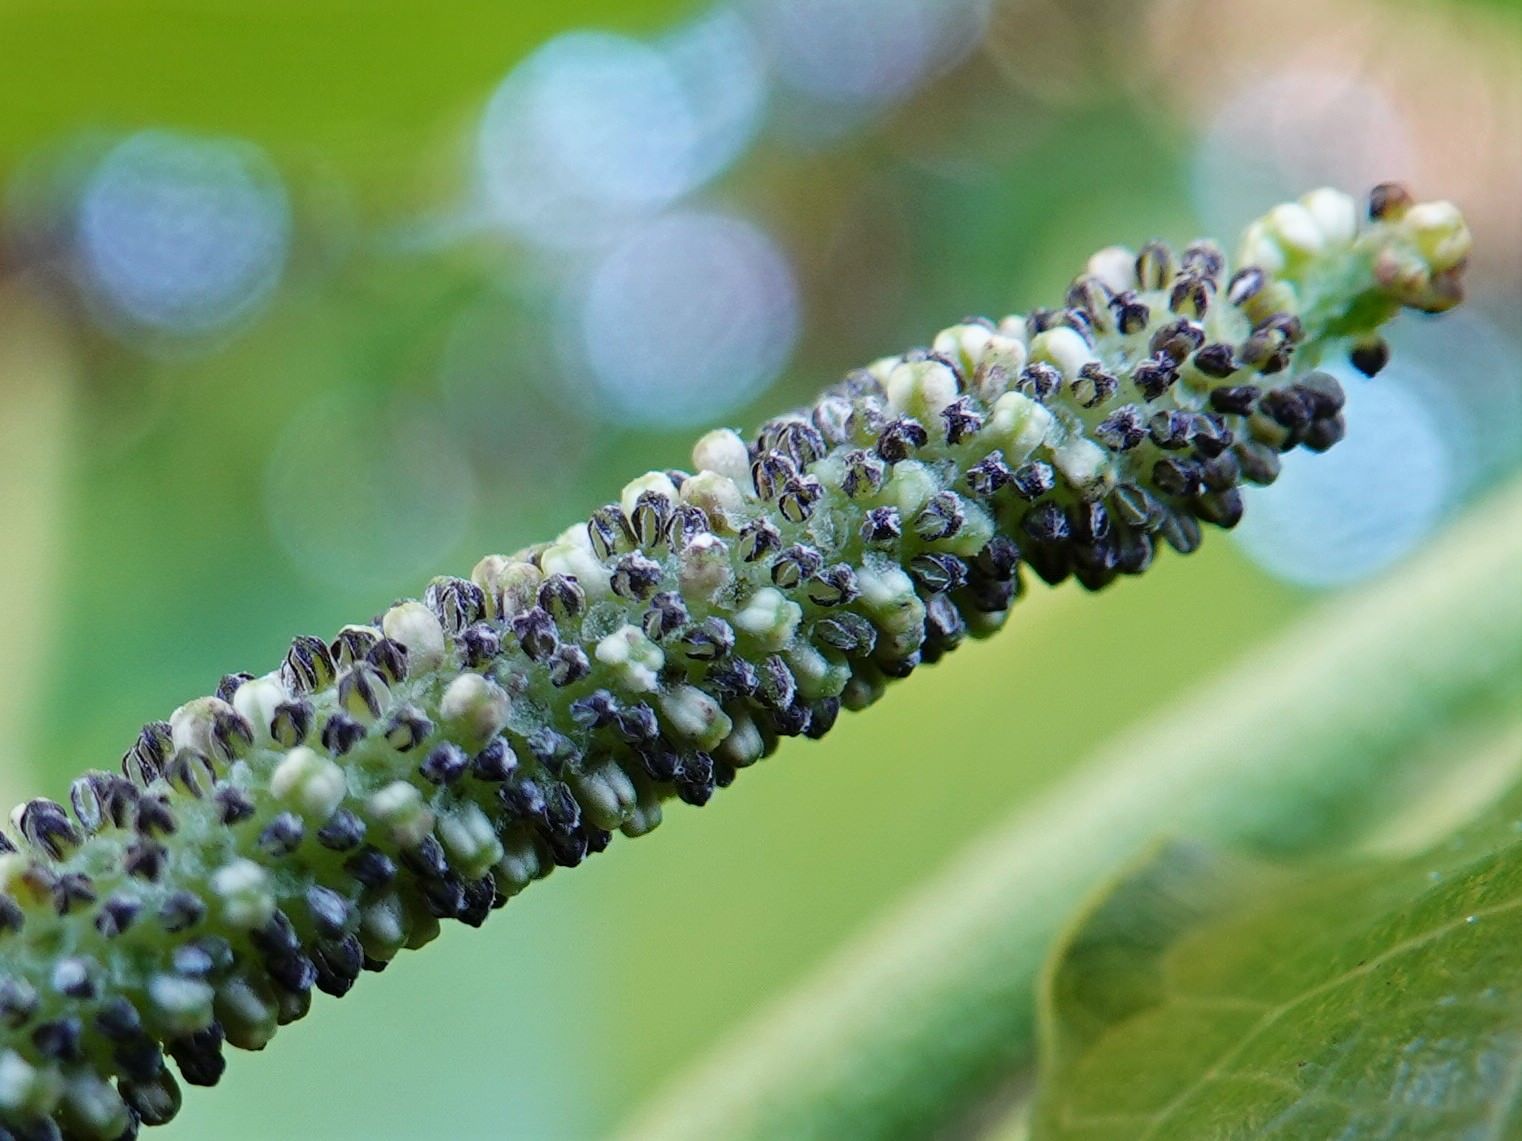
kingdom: Plantae
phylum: Tracheophyta
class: Magnoliopsida
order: Piperales
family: Piperaceae
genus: Macropiper
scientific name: Macropiper excelsum
